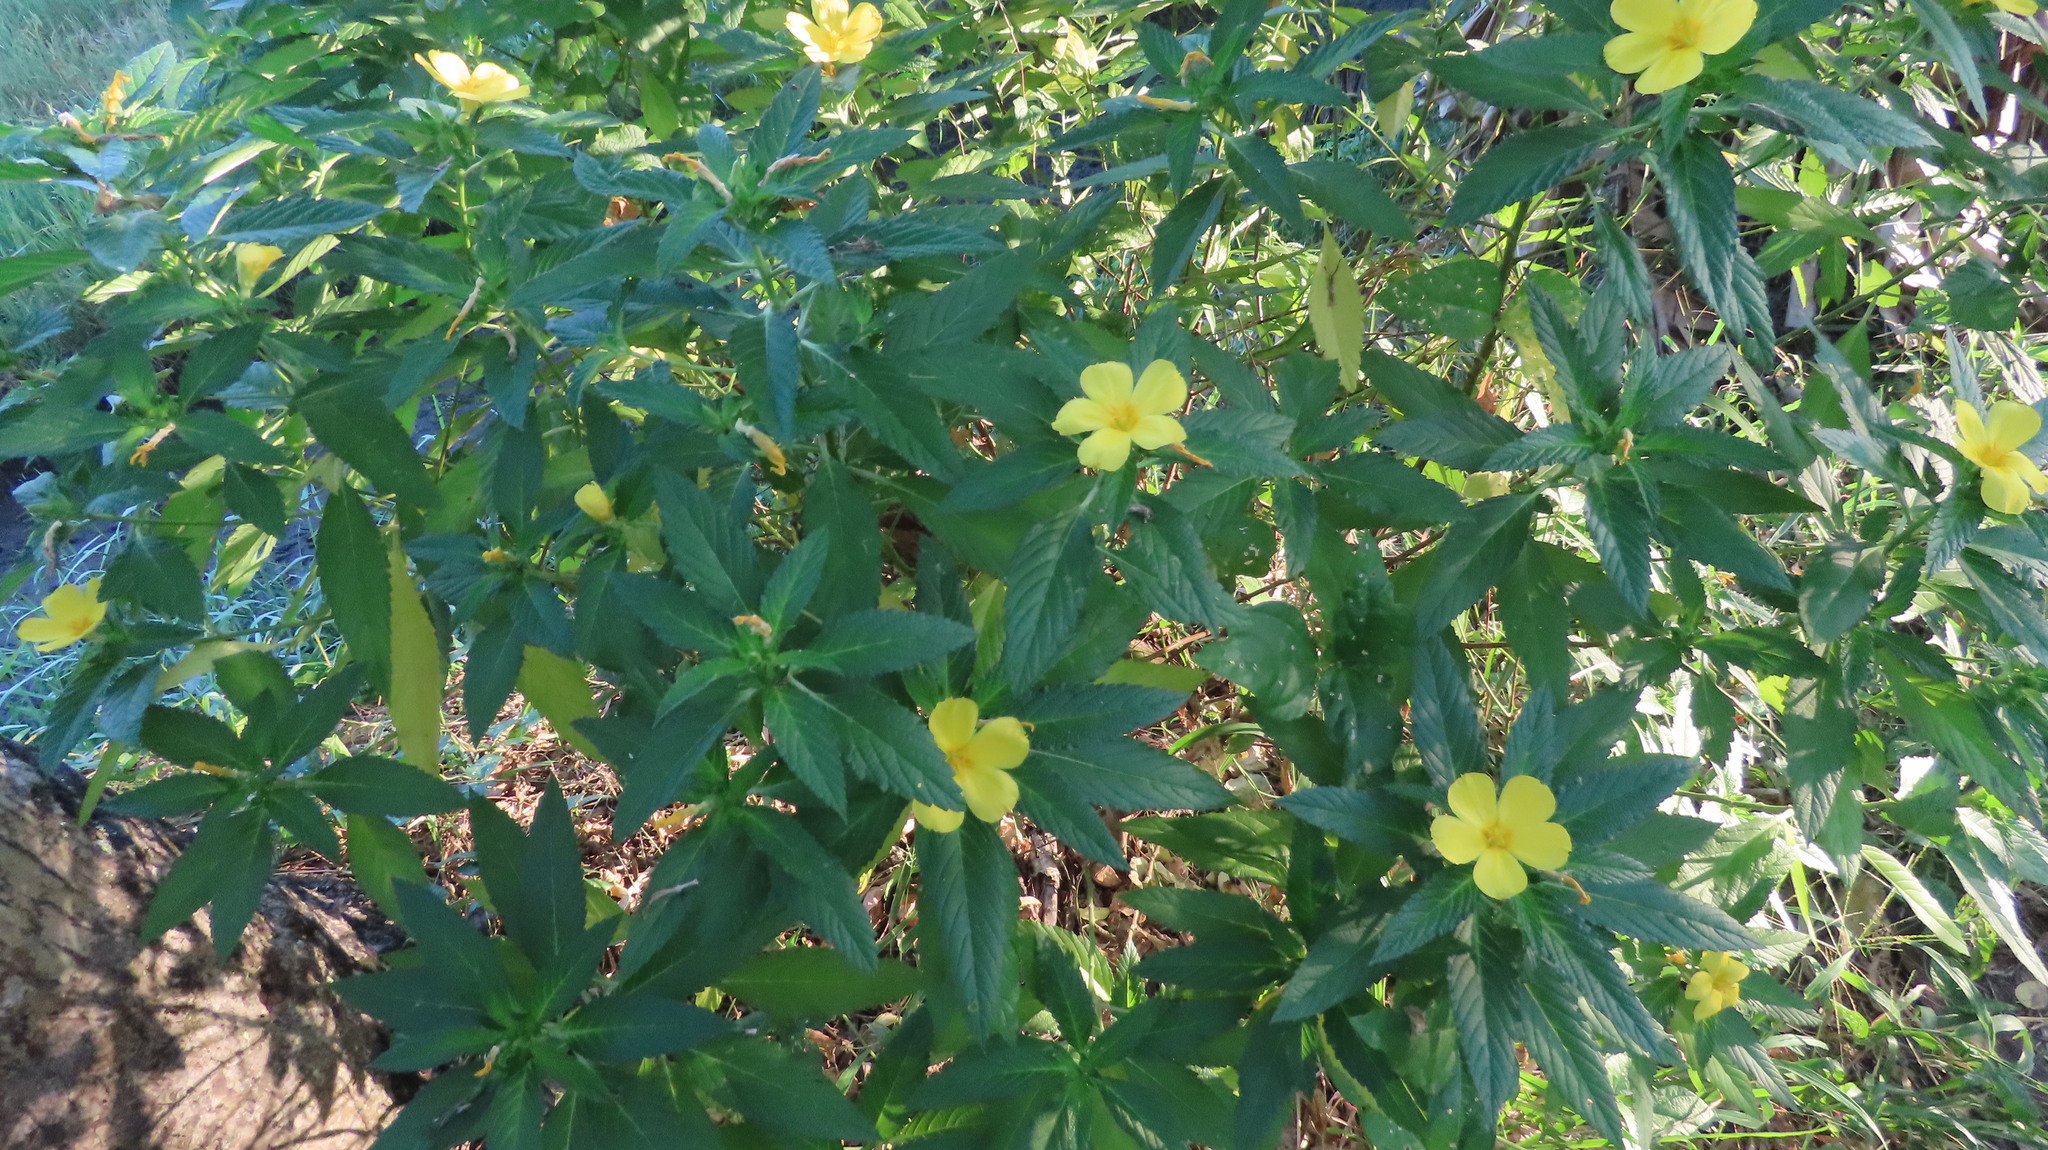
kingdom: Plantae
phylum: Tracheophyta
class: Magnoliopsida
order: Malpighiales
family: Turneraceae
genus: Turnera
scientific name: Turnera ulmifolia
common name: Ramgoat dashalong
